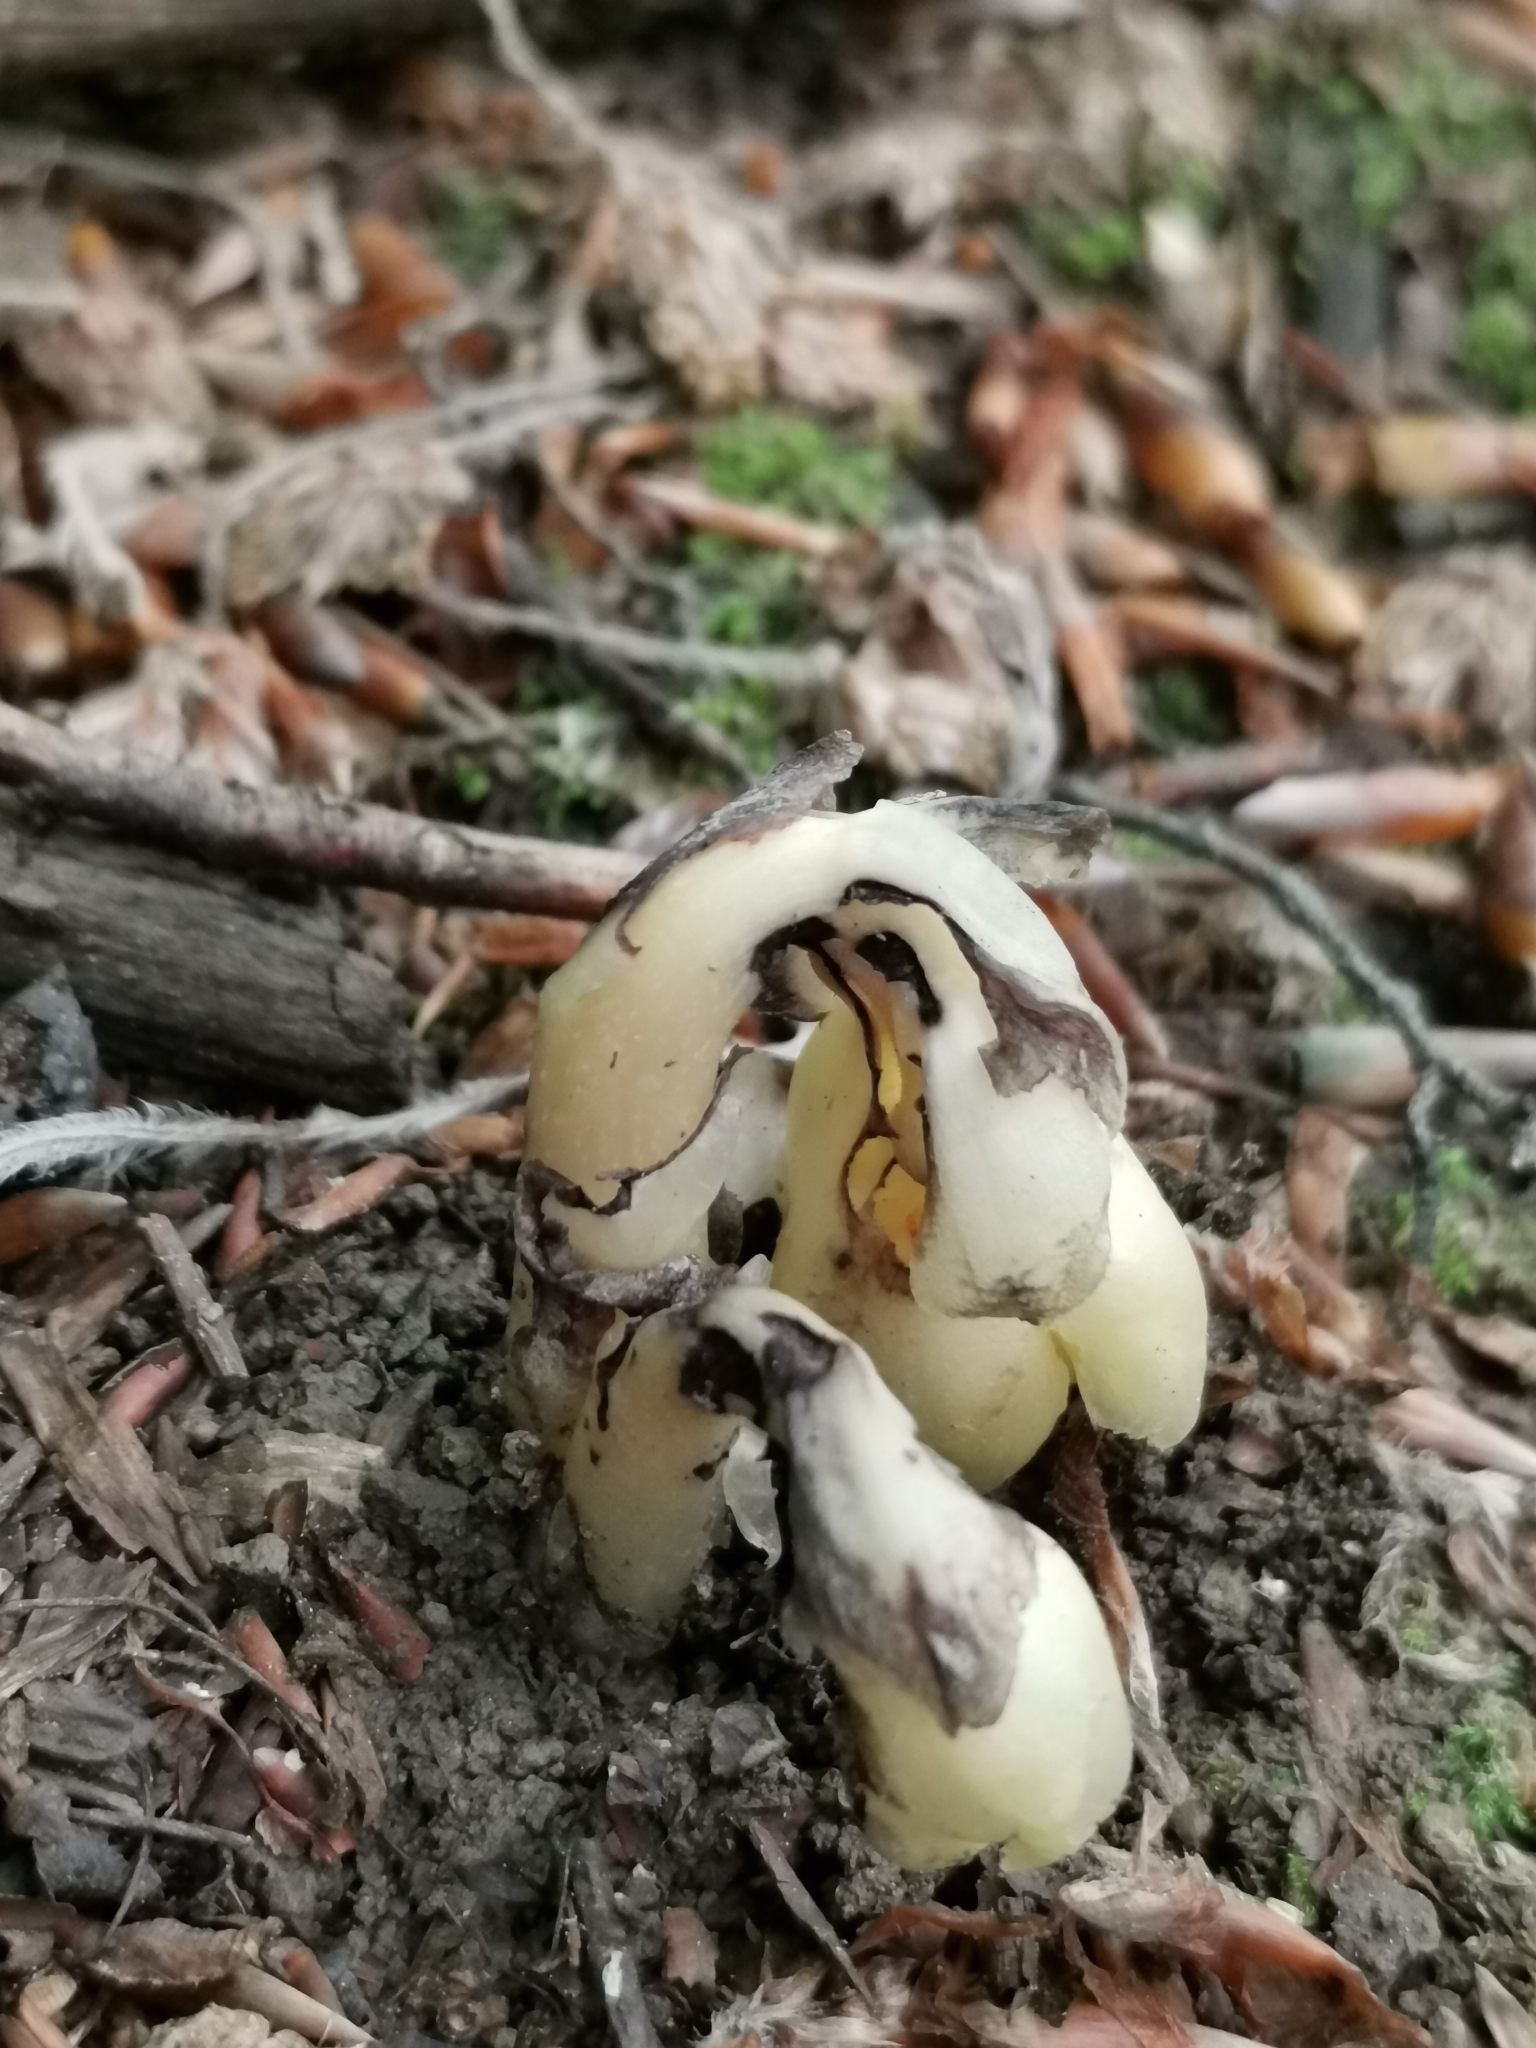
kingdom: Plantae
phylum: Tracheophyta
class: Magnoliopsida
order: Ericales
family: Ericaceae
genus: Hypopitys
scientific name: Hypopitys monotropa
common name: Yellow bird's-nest
